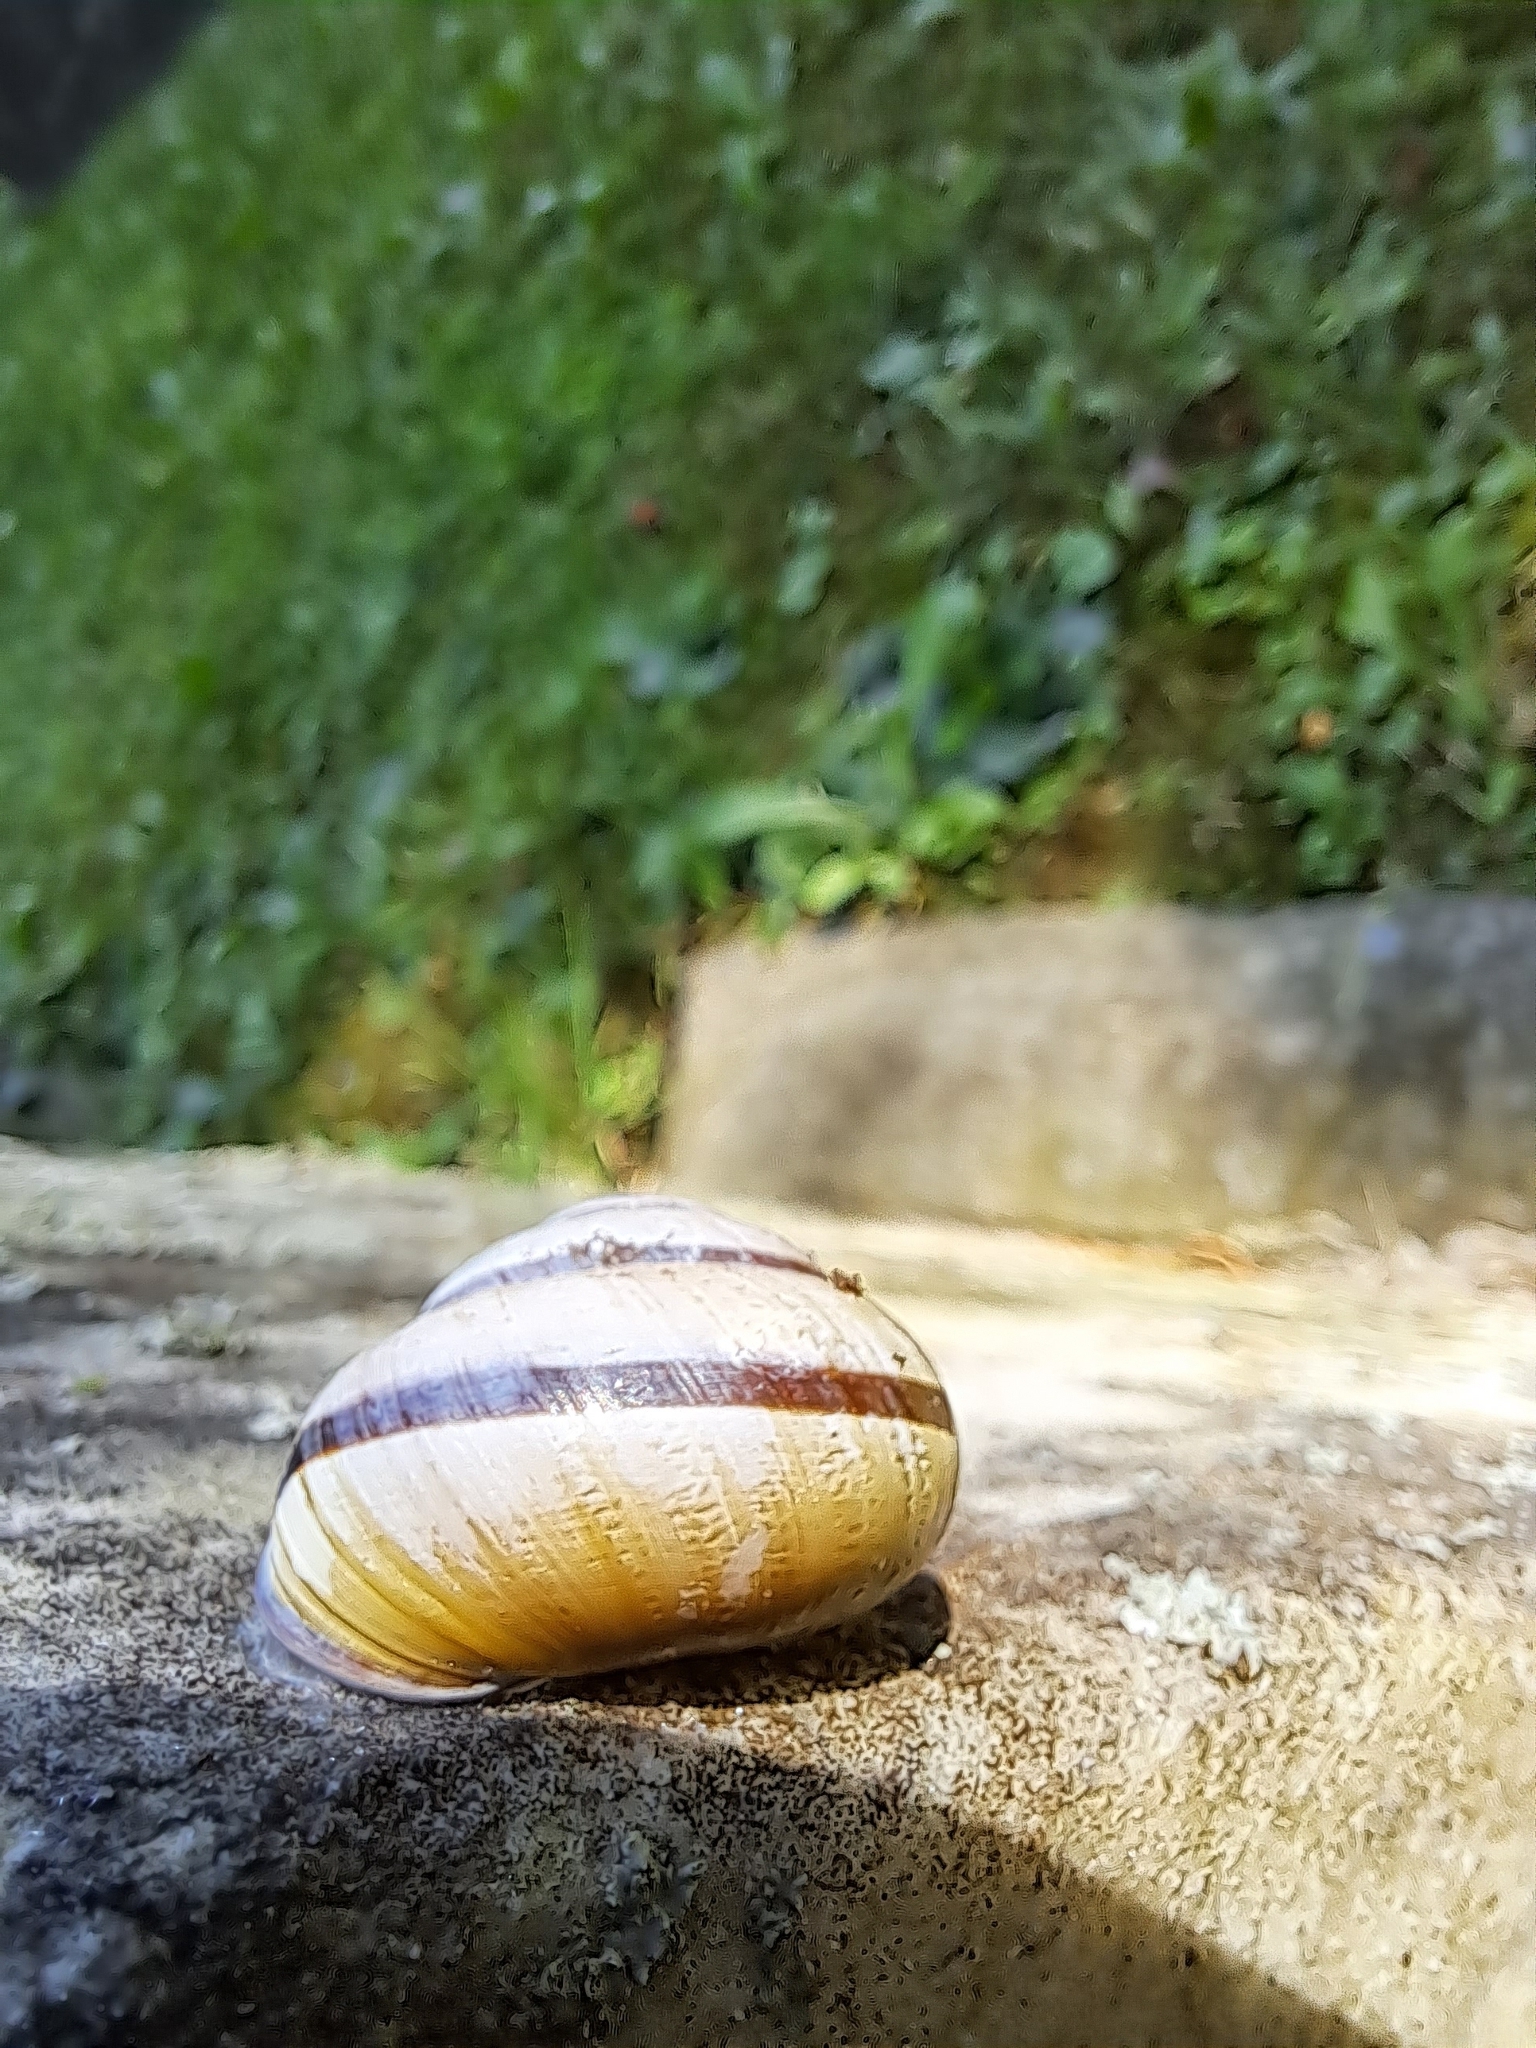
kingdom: Animalia
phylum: Mollusca
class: Gastropoda
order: Stylommatophora
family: Helicidae
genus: Cepaea
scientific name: Cepaea nemoralis
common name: Grovesnail
